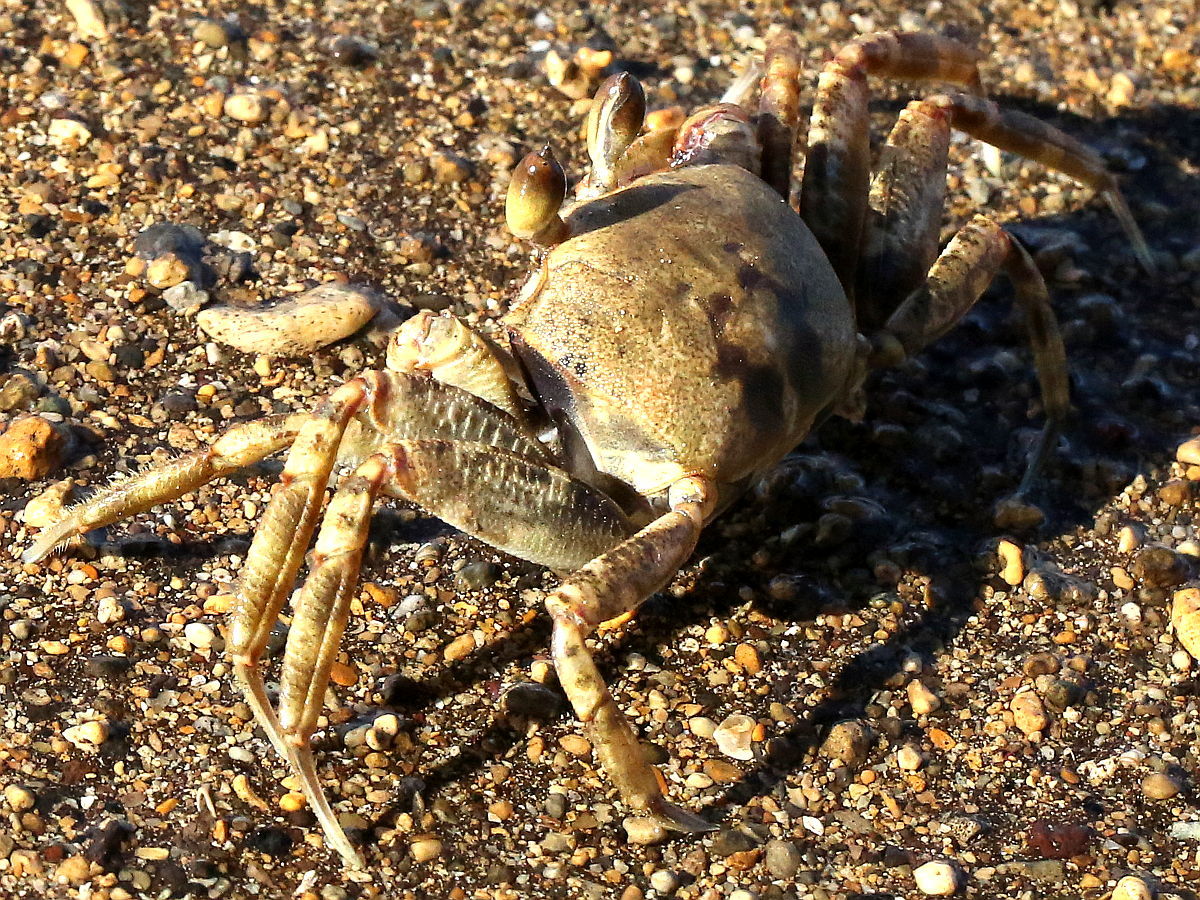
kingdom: Animalia
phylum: Arthropoda
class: Malacostraca
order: Decapoda
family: Ocypodidae
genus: Ocypode
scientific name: Ocypode ceratophthalmus
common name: Indo-pacific ghost crab
